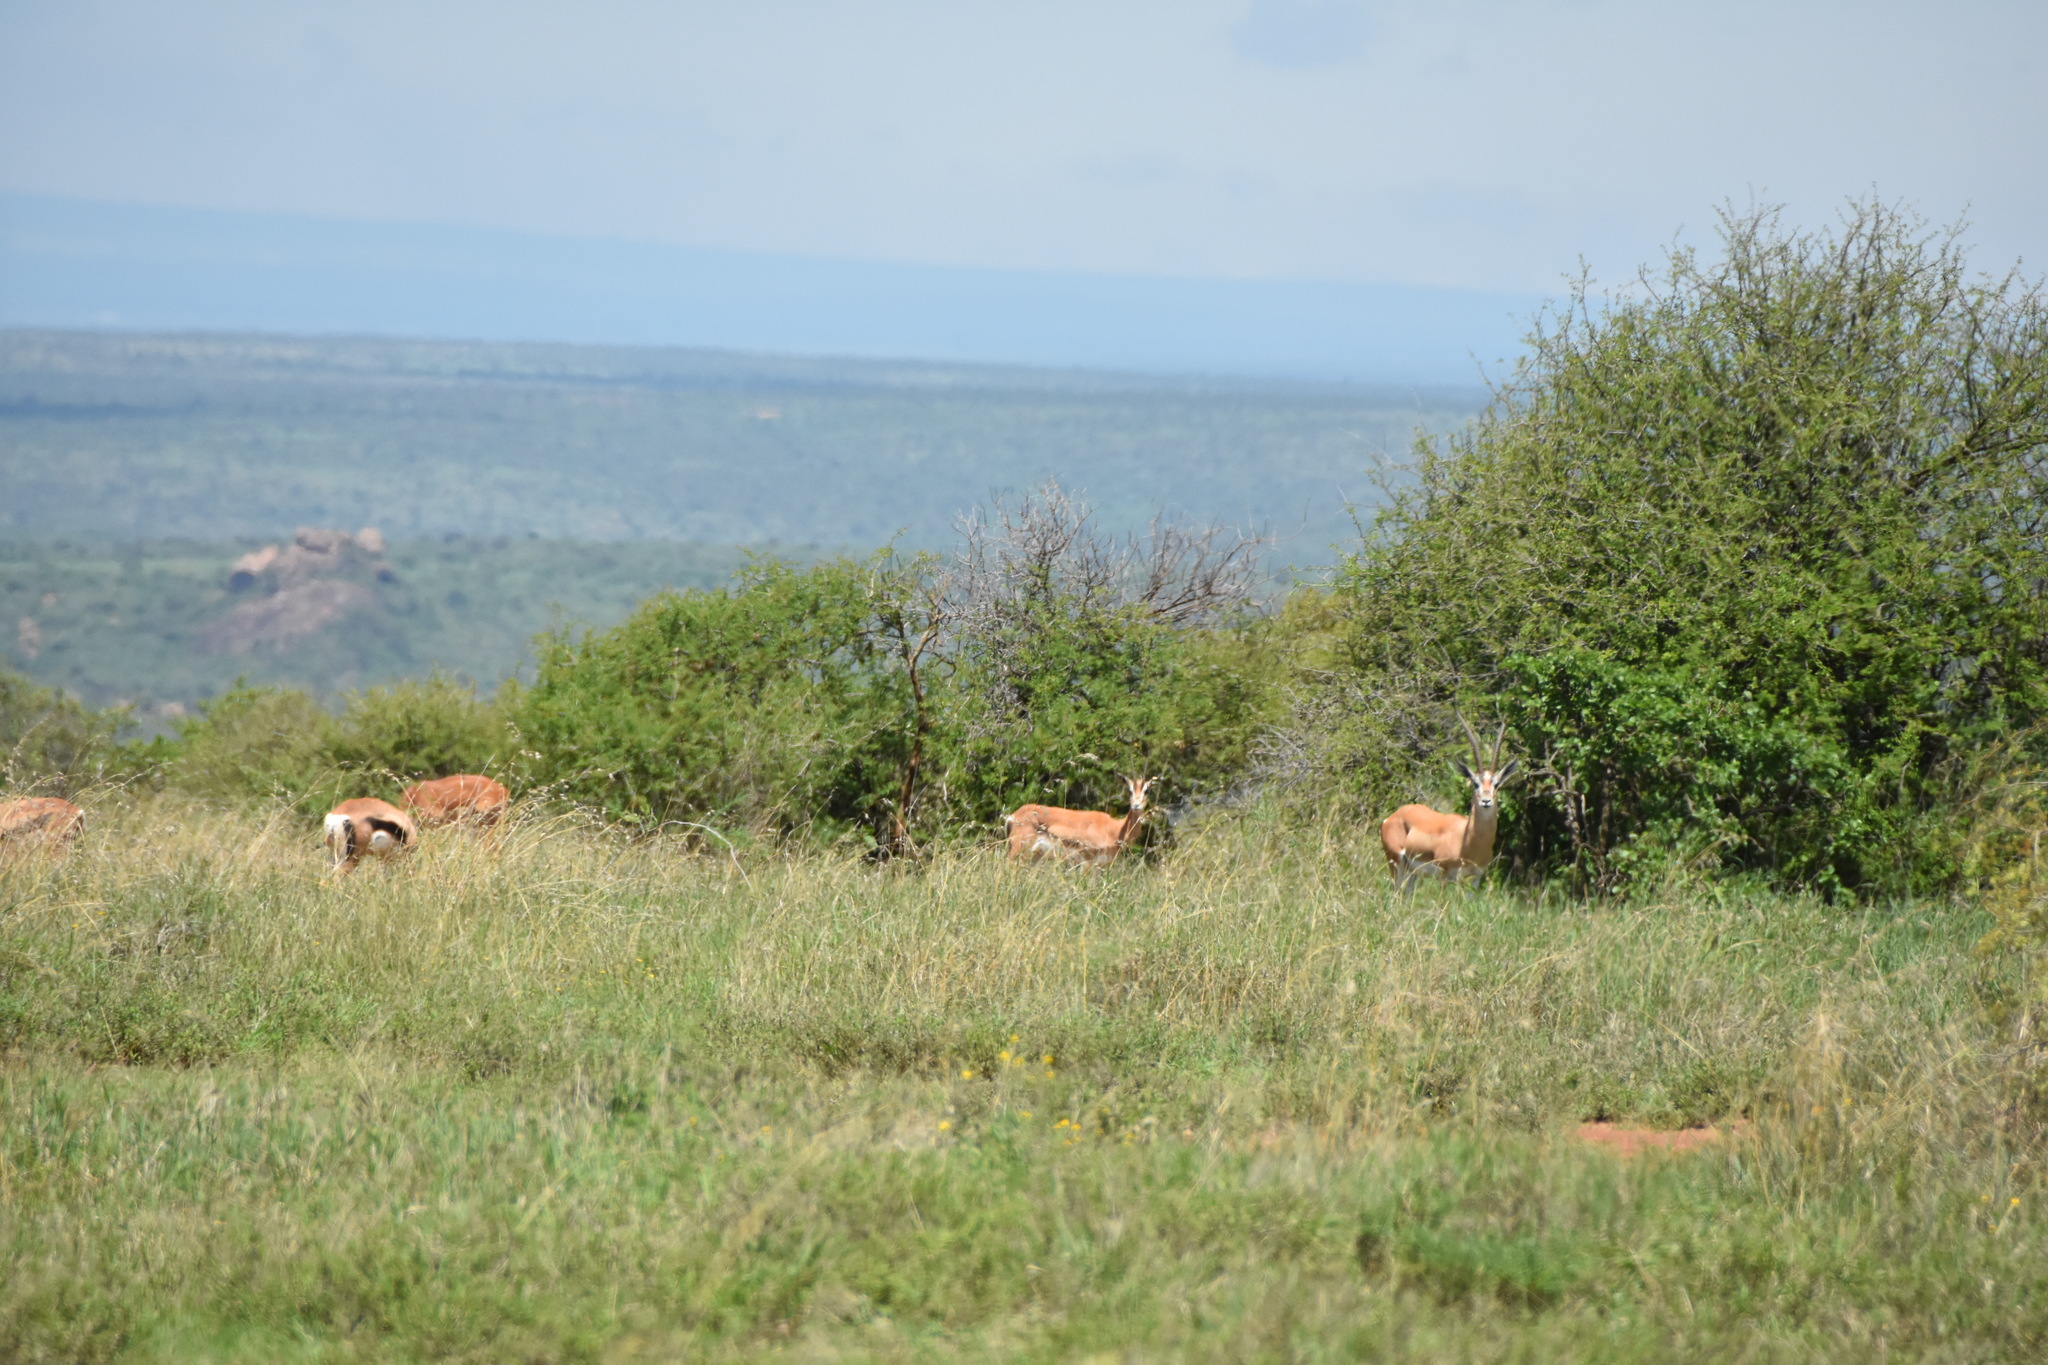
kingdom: Animalia
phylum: Chordata
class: Mammalia
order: Artiodactyla
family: Bovidae
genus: Nanger
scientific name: Nanger granti
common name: Grant's gazelle
